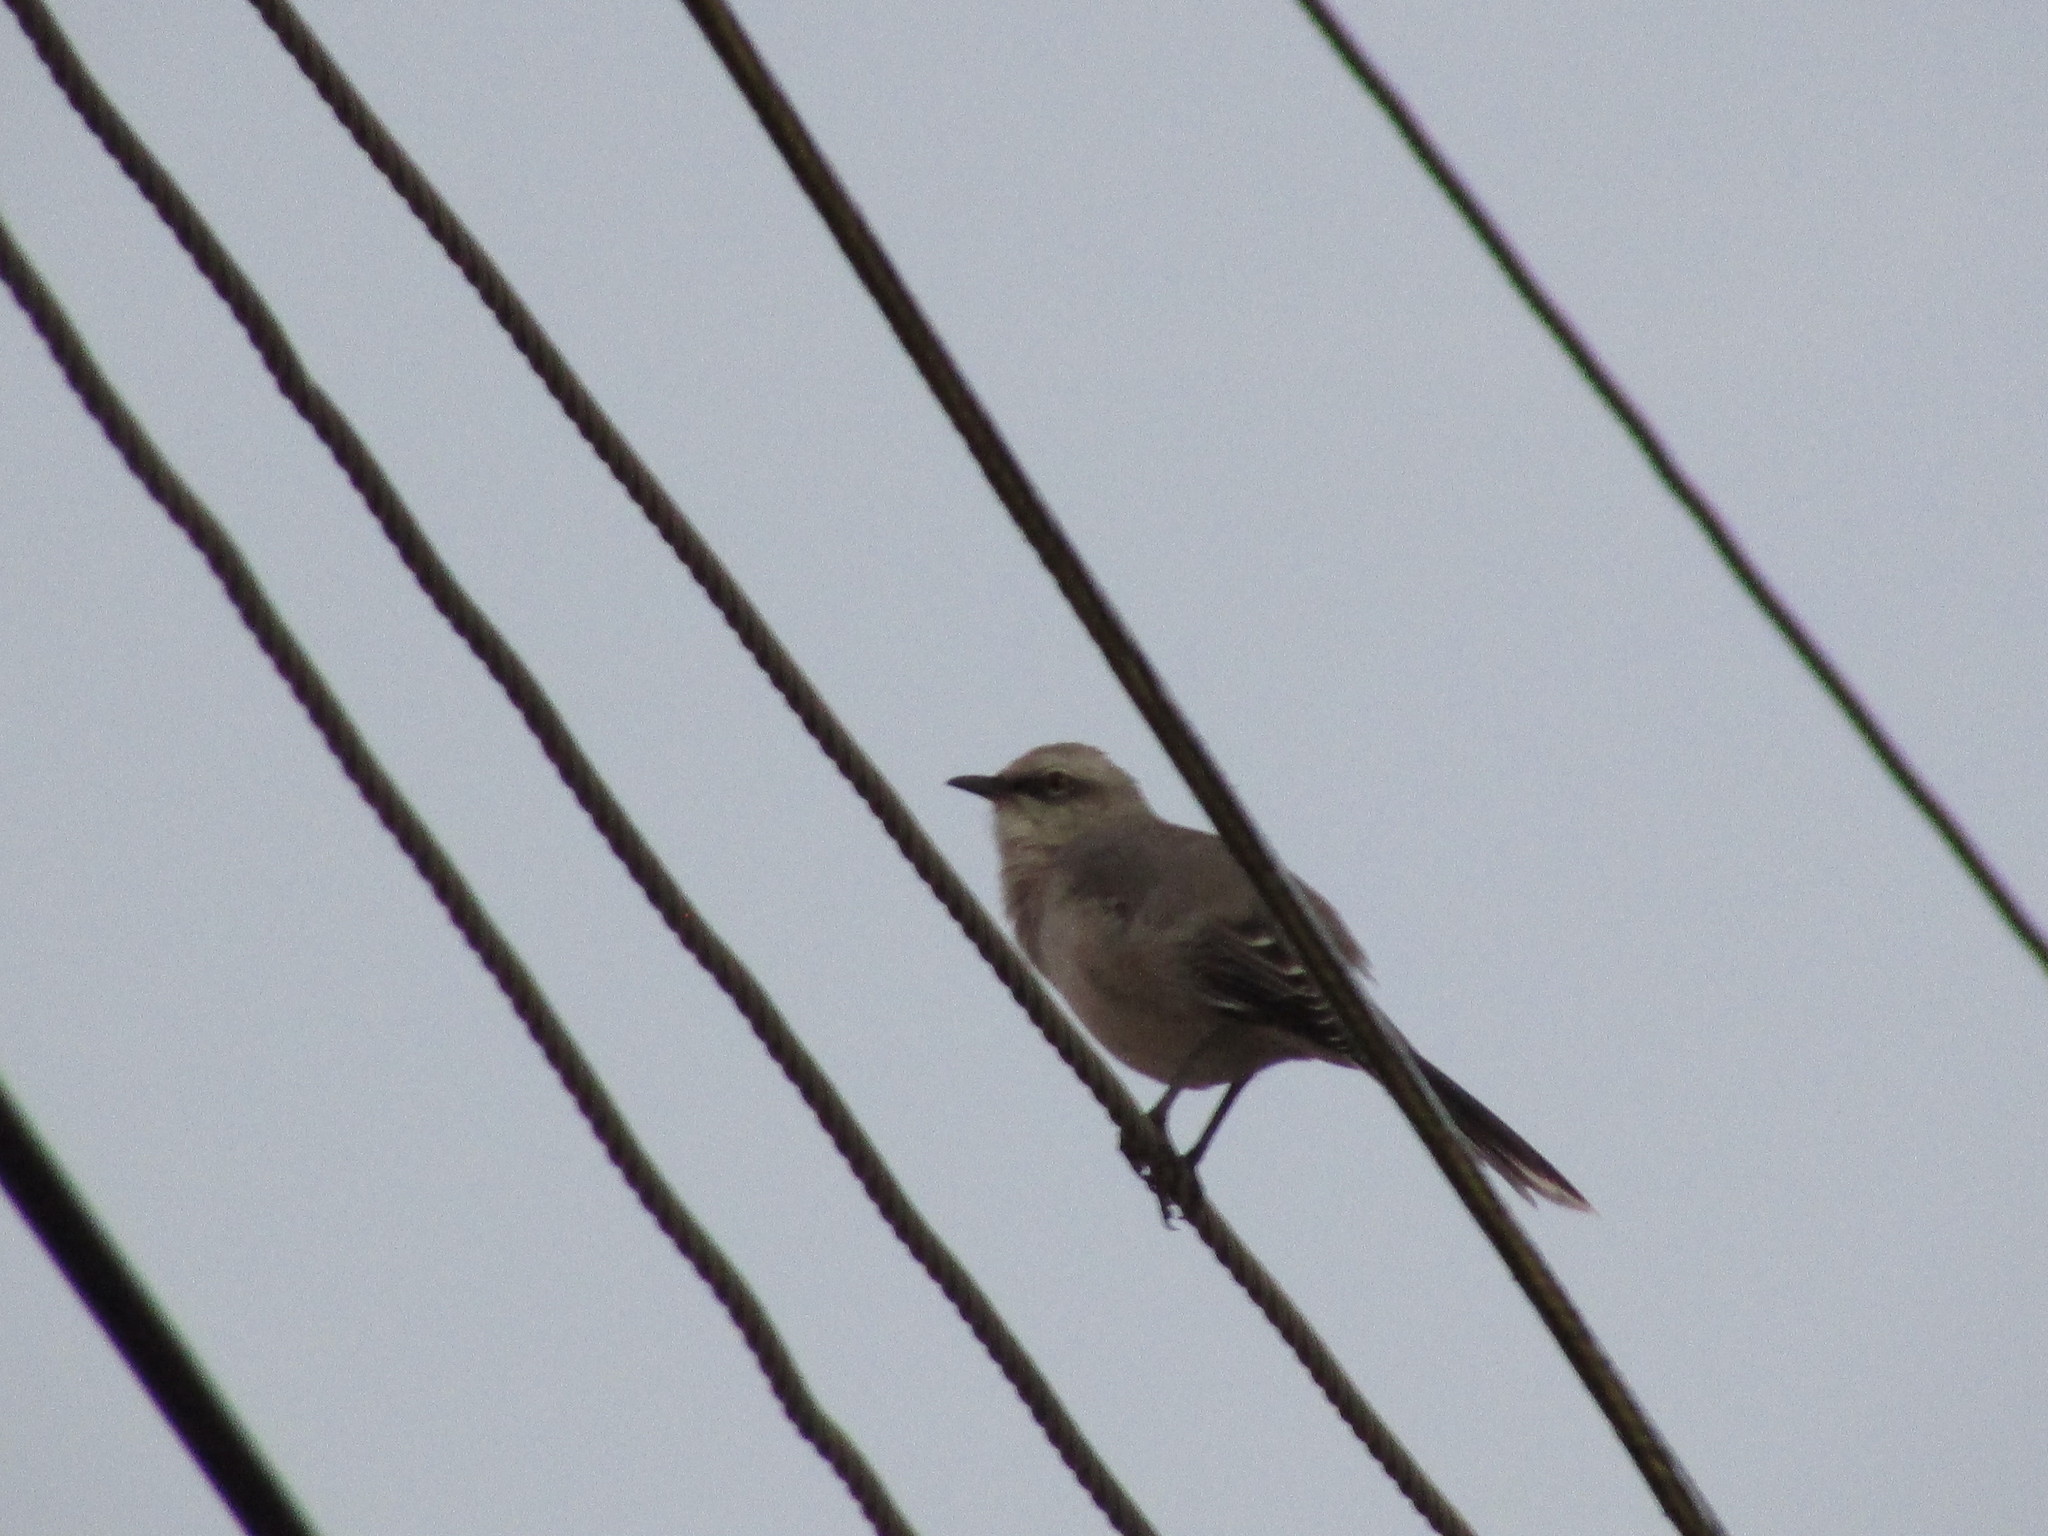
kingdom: Animalia
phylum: Chordata
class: Aves
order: Passeriformes
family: Mimidae
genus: Mimus
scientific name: Mimus gilvus
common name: Tropical mockingbird
